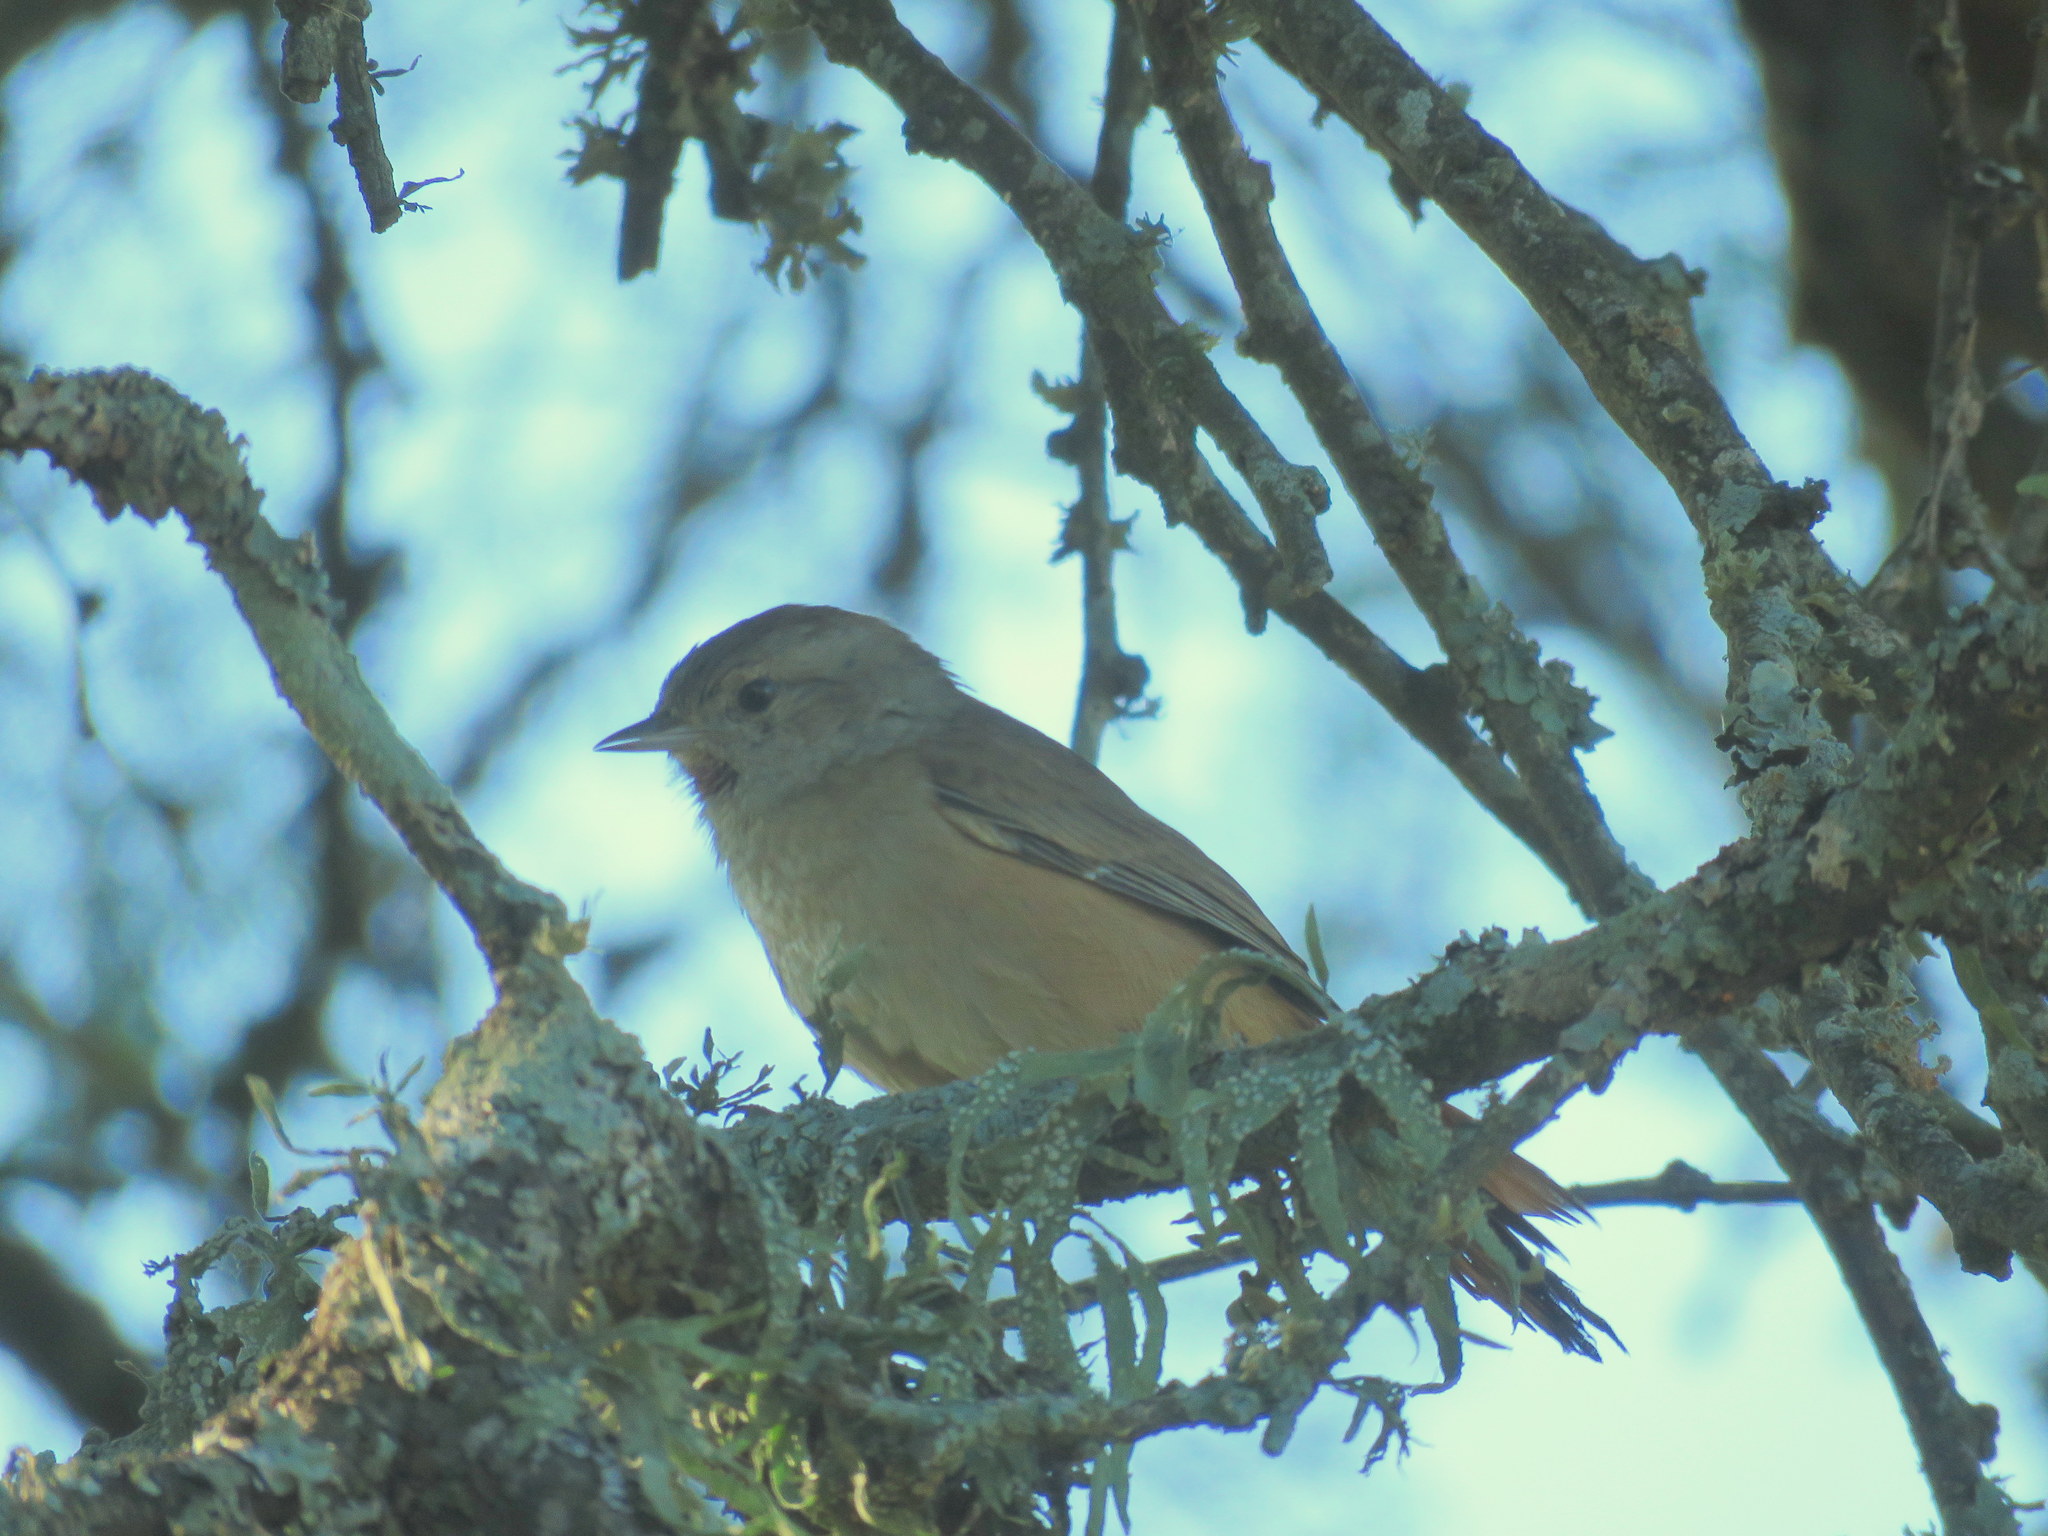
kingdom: Animalia
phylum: Chordata
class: Aves
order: Passeriformes
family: Furnariidae
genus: Asthenes
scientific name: Asthenes baeri
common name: Short-billed canastero
